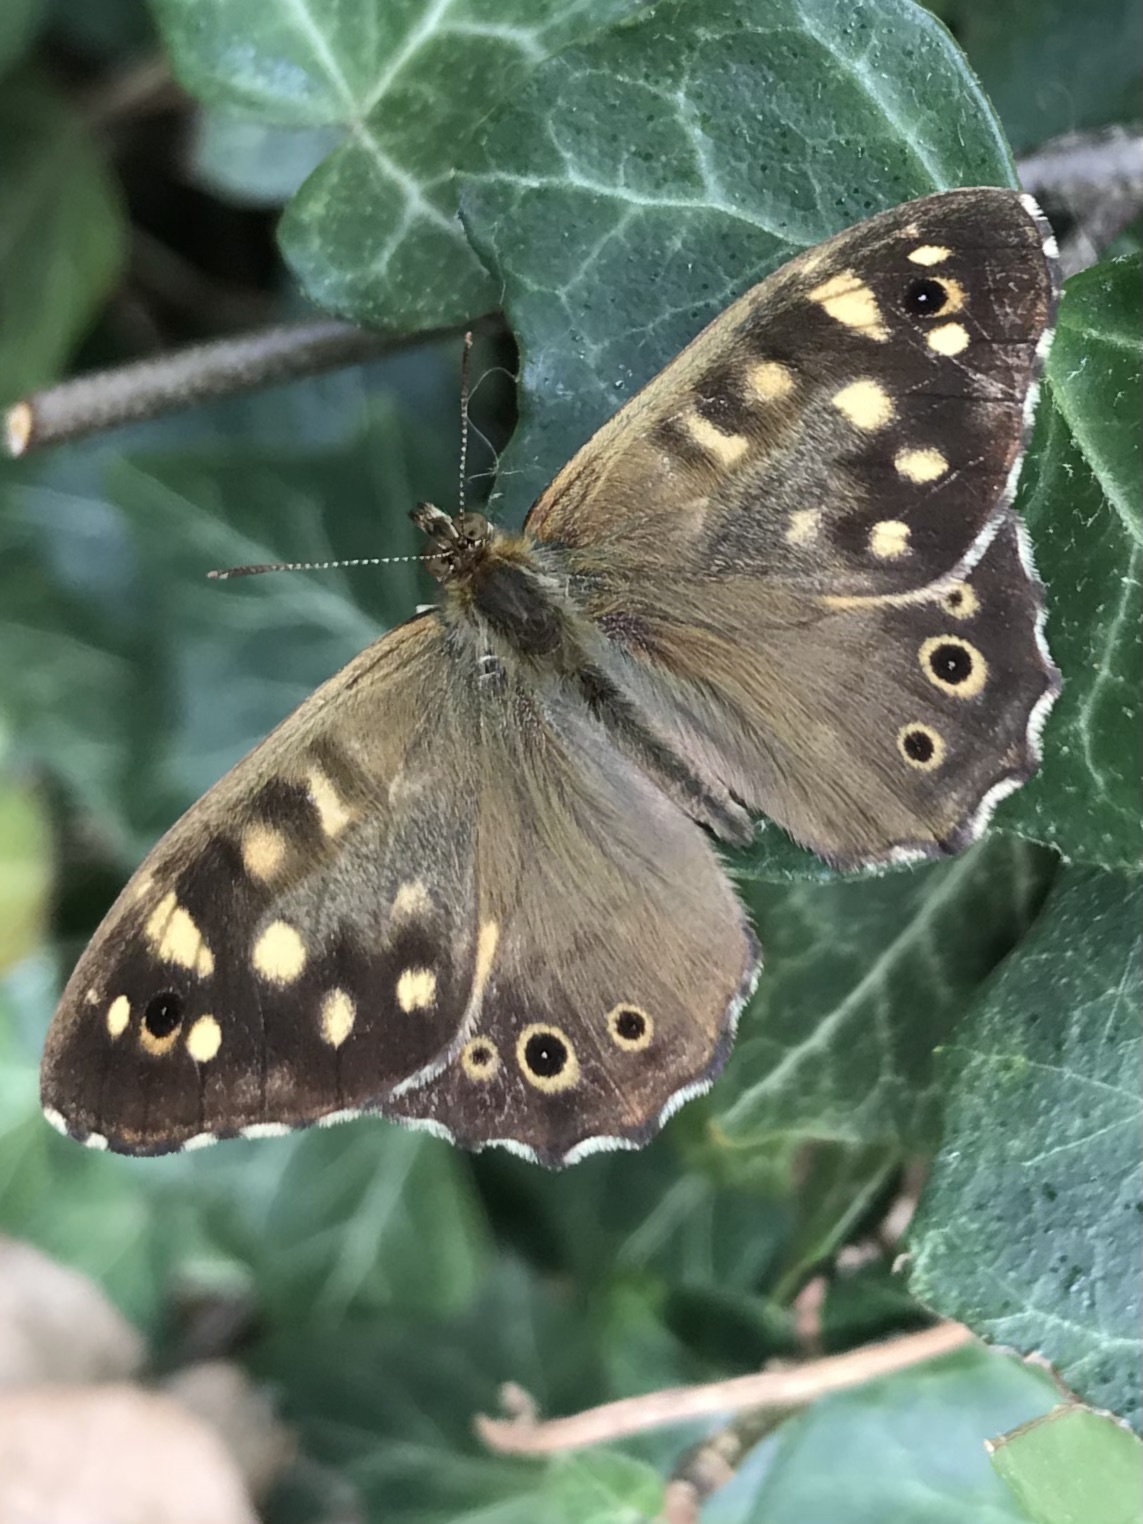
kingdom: Animalia
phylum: Arthropoda
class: Insecta
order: Lepidoptera
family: Nymphalidae
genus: Pararge
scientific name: Pararge aegeria
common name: Speckled wood
